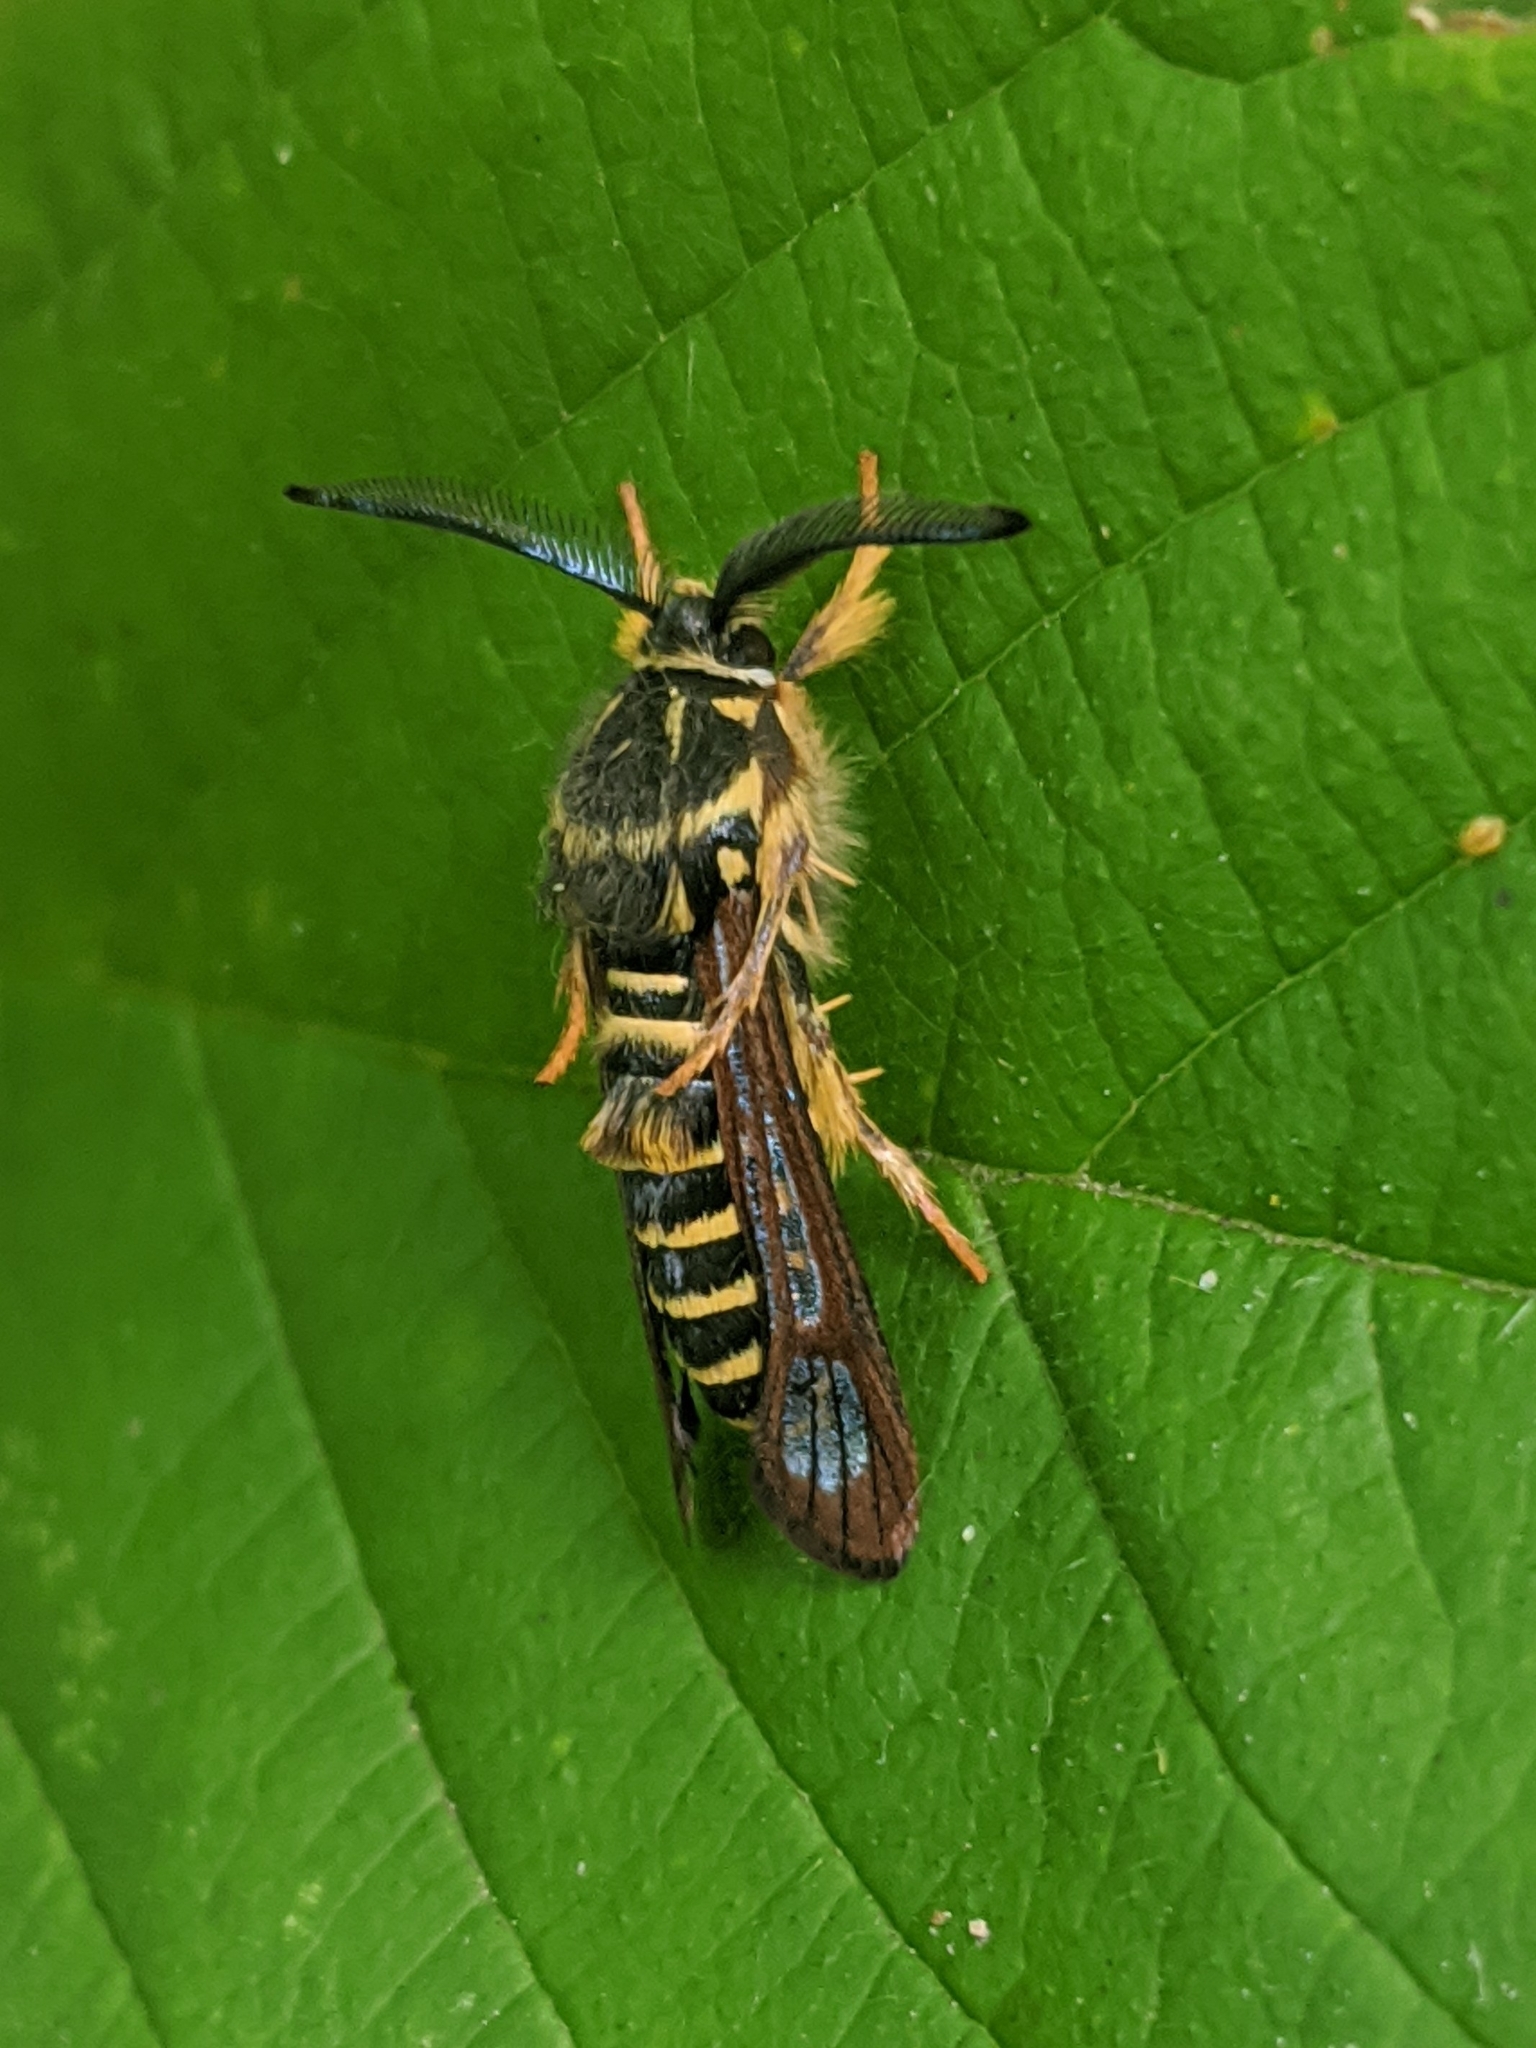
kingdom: Animalia
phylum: Arthropoda
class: Insecta
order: Lepidoptera
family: Sesiidae
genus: Pennisetia
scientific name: Pennisetia marginatum
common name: Raspberry crown borer
